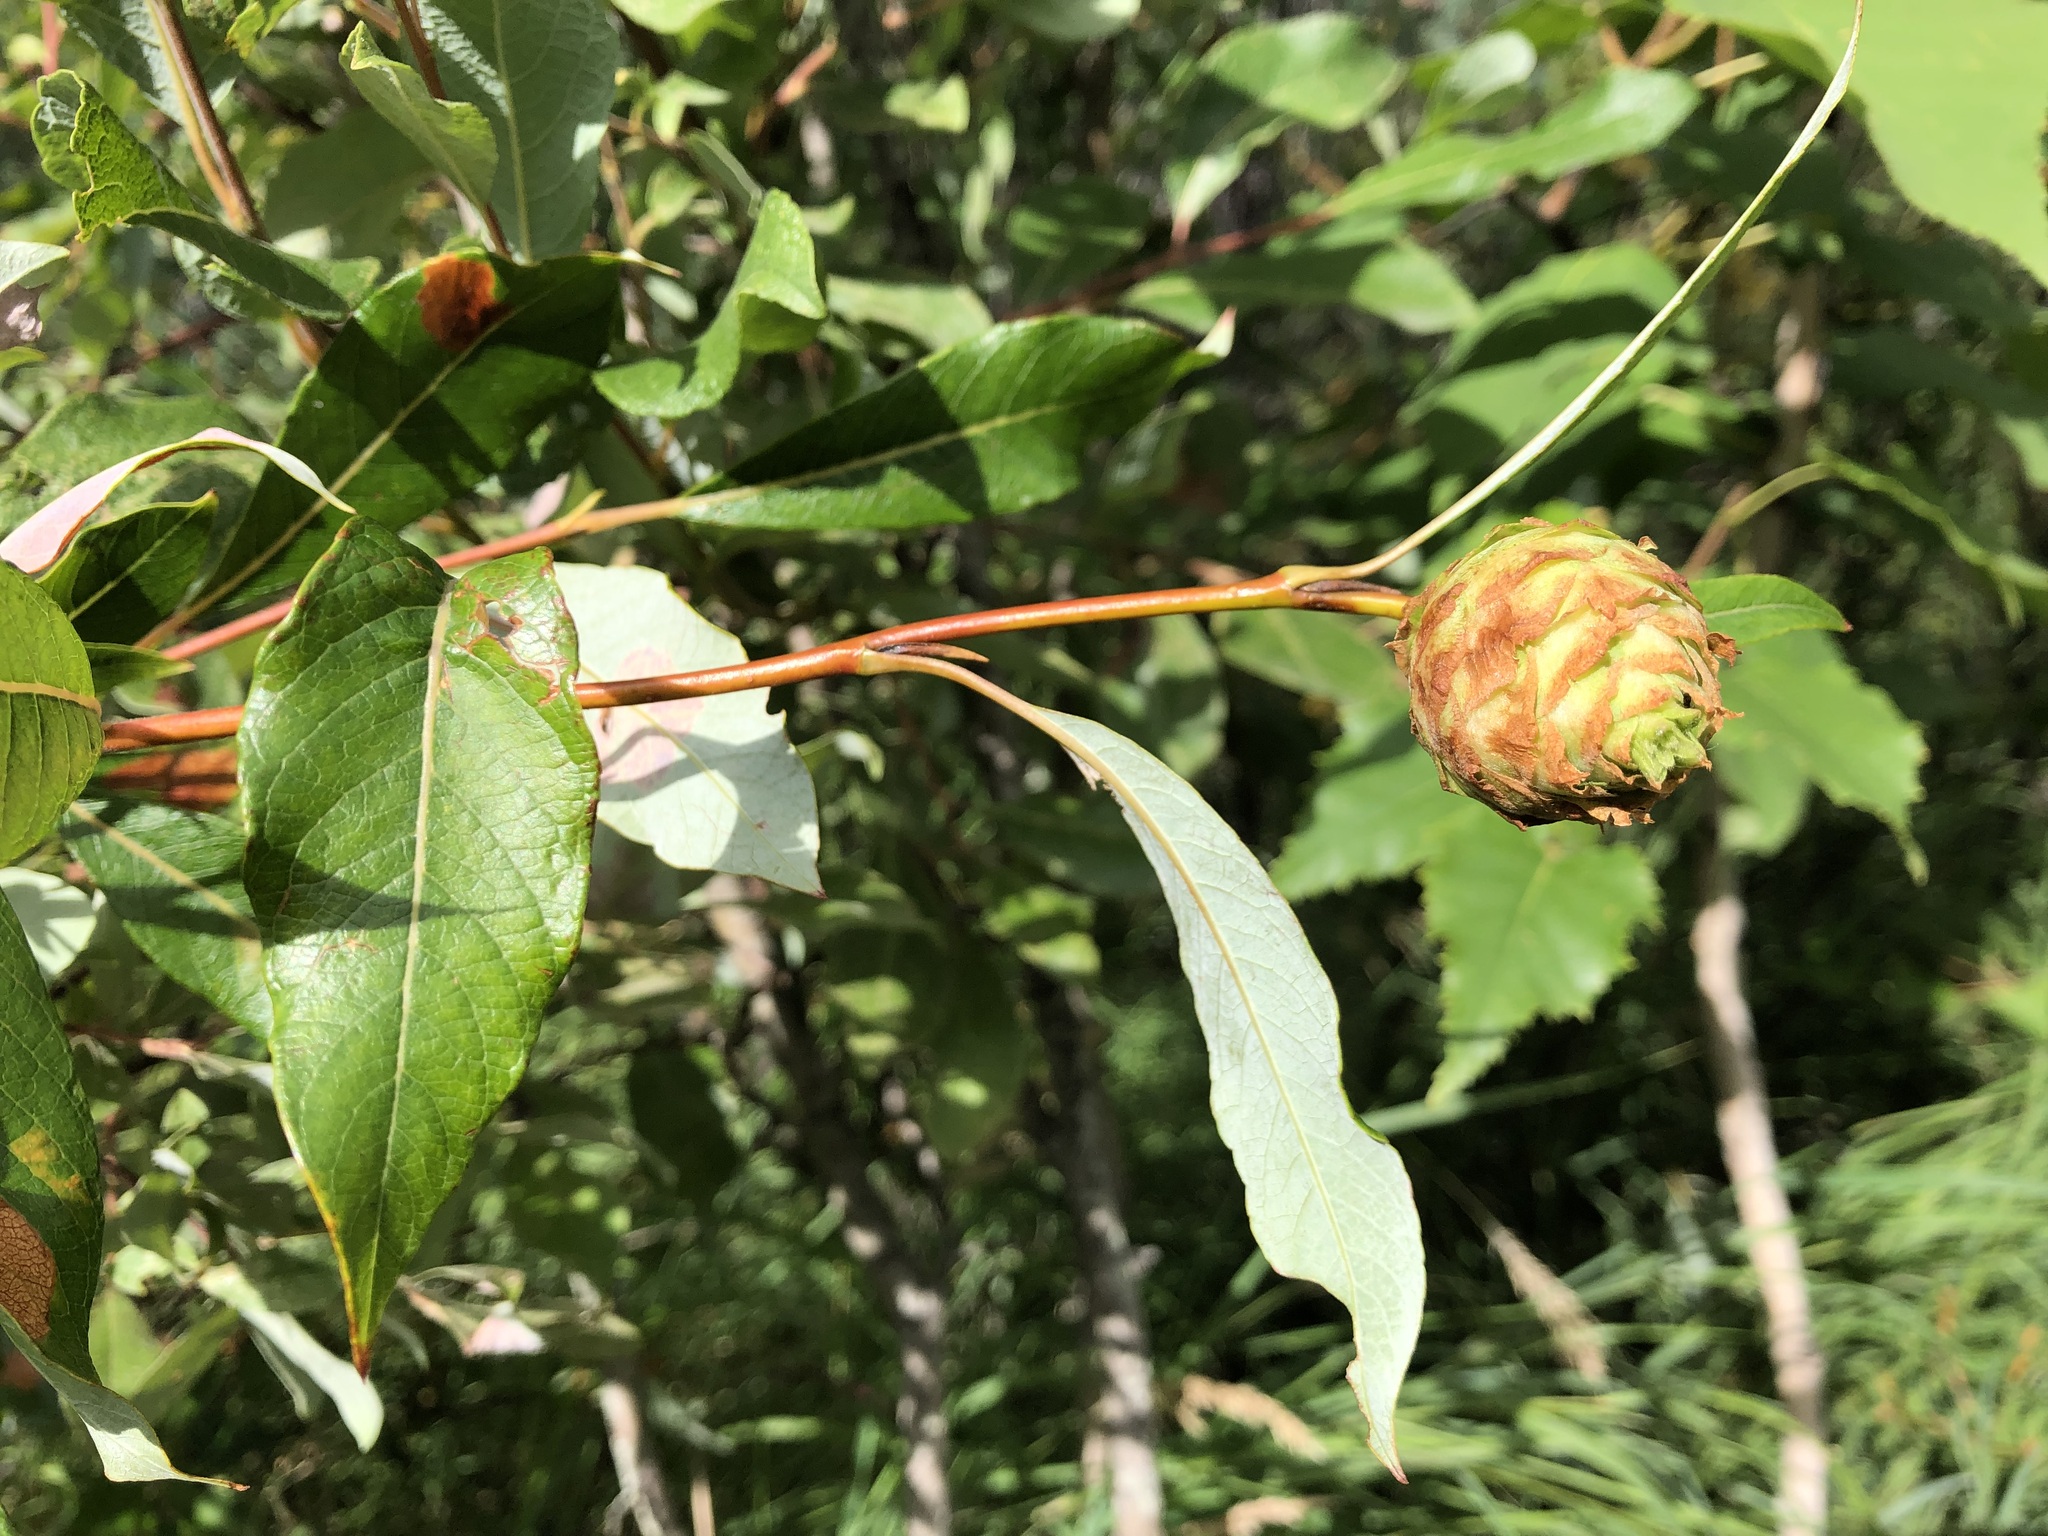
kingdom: Animalia
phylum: Arthropoda
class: Insecta
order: Diptera
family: Cecidomyiidae
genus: Rabdophaga
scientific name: Rabdophaga strobiloides
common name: Willow pinecone gall midge
